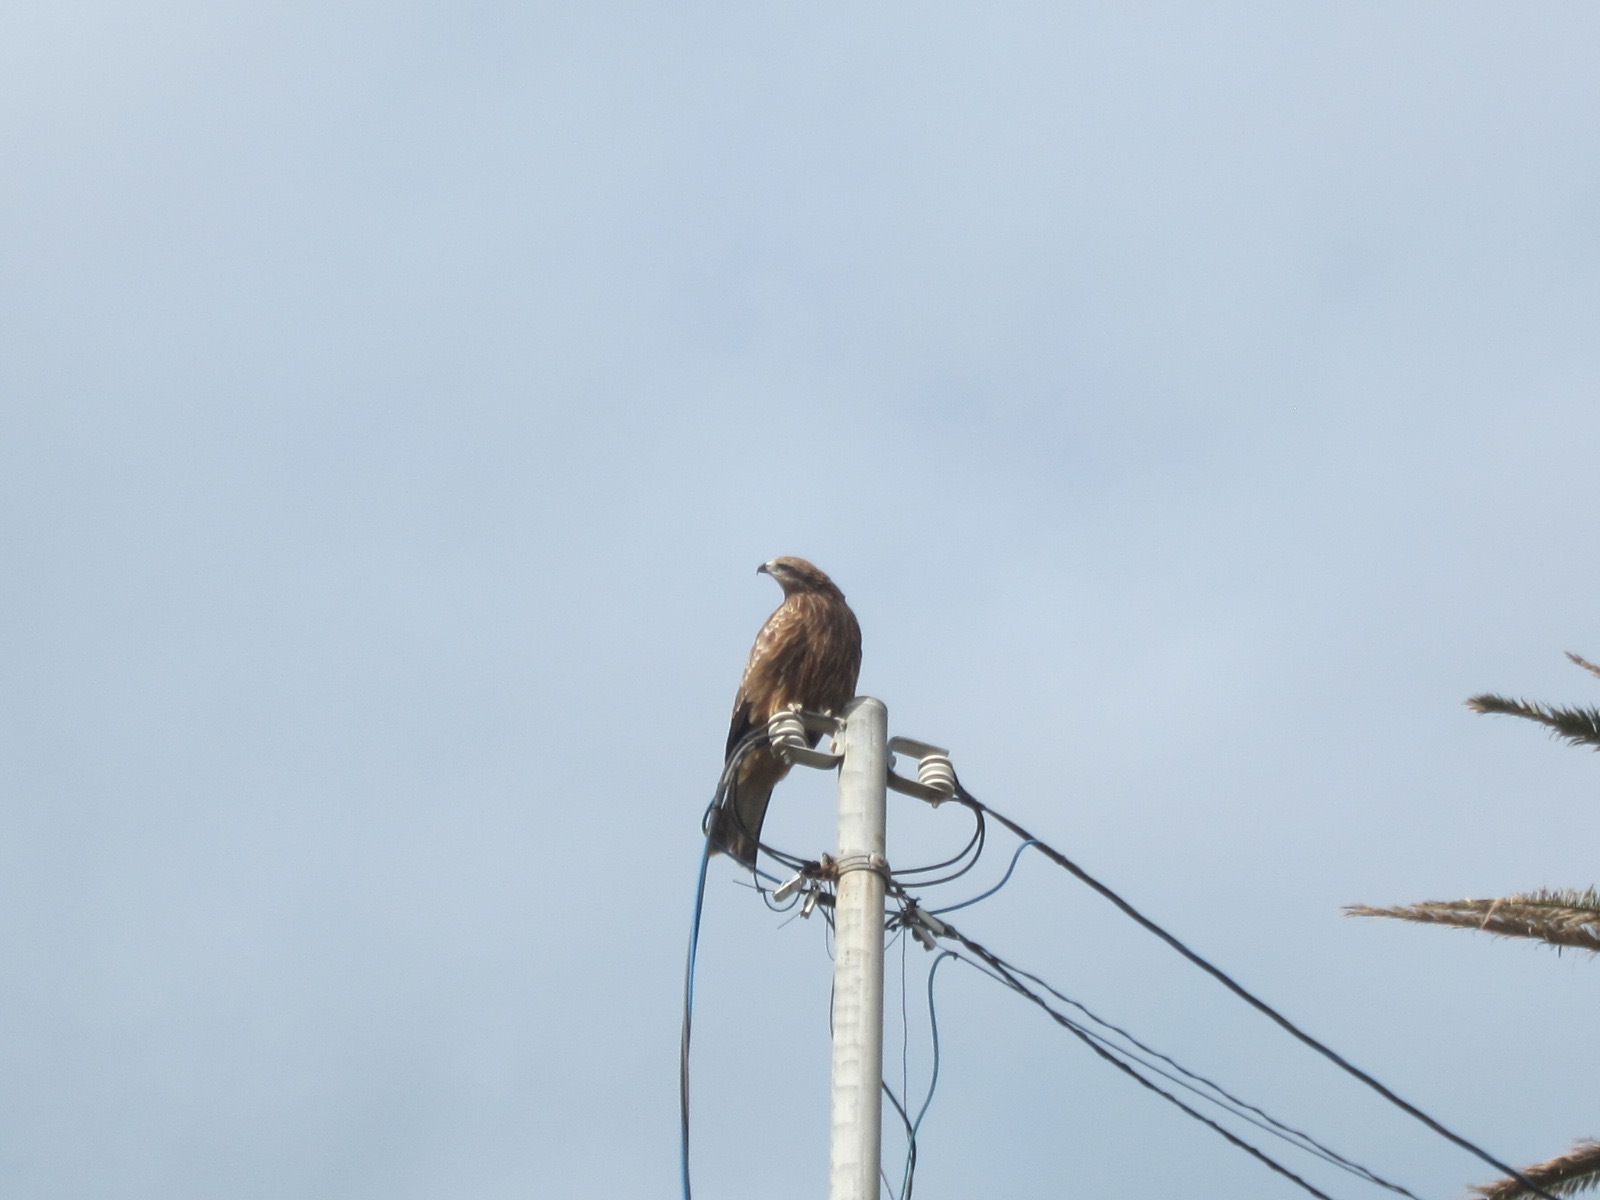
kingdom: Animalia
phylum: Chordata
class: Aves
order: Accipitriformes
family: Accipitridae
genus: Milvus
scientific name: Milvus migrans
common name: Black kite
